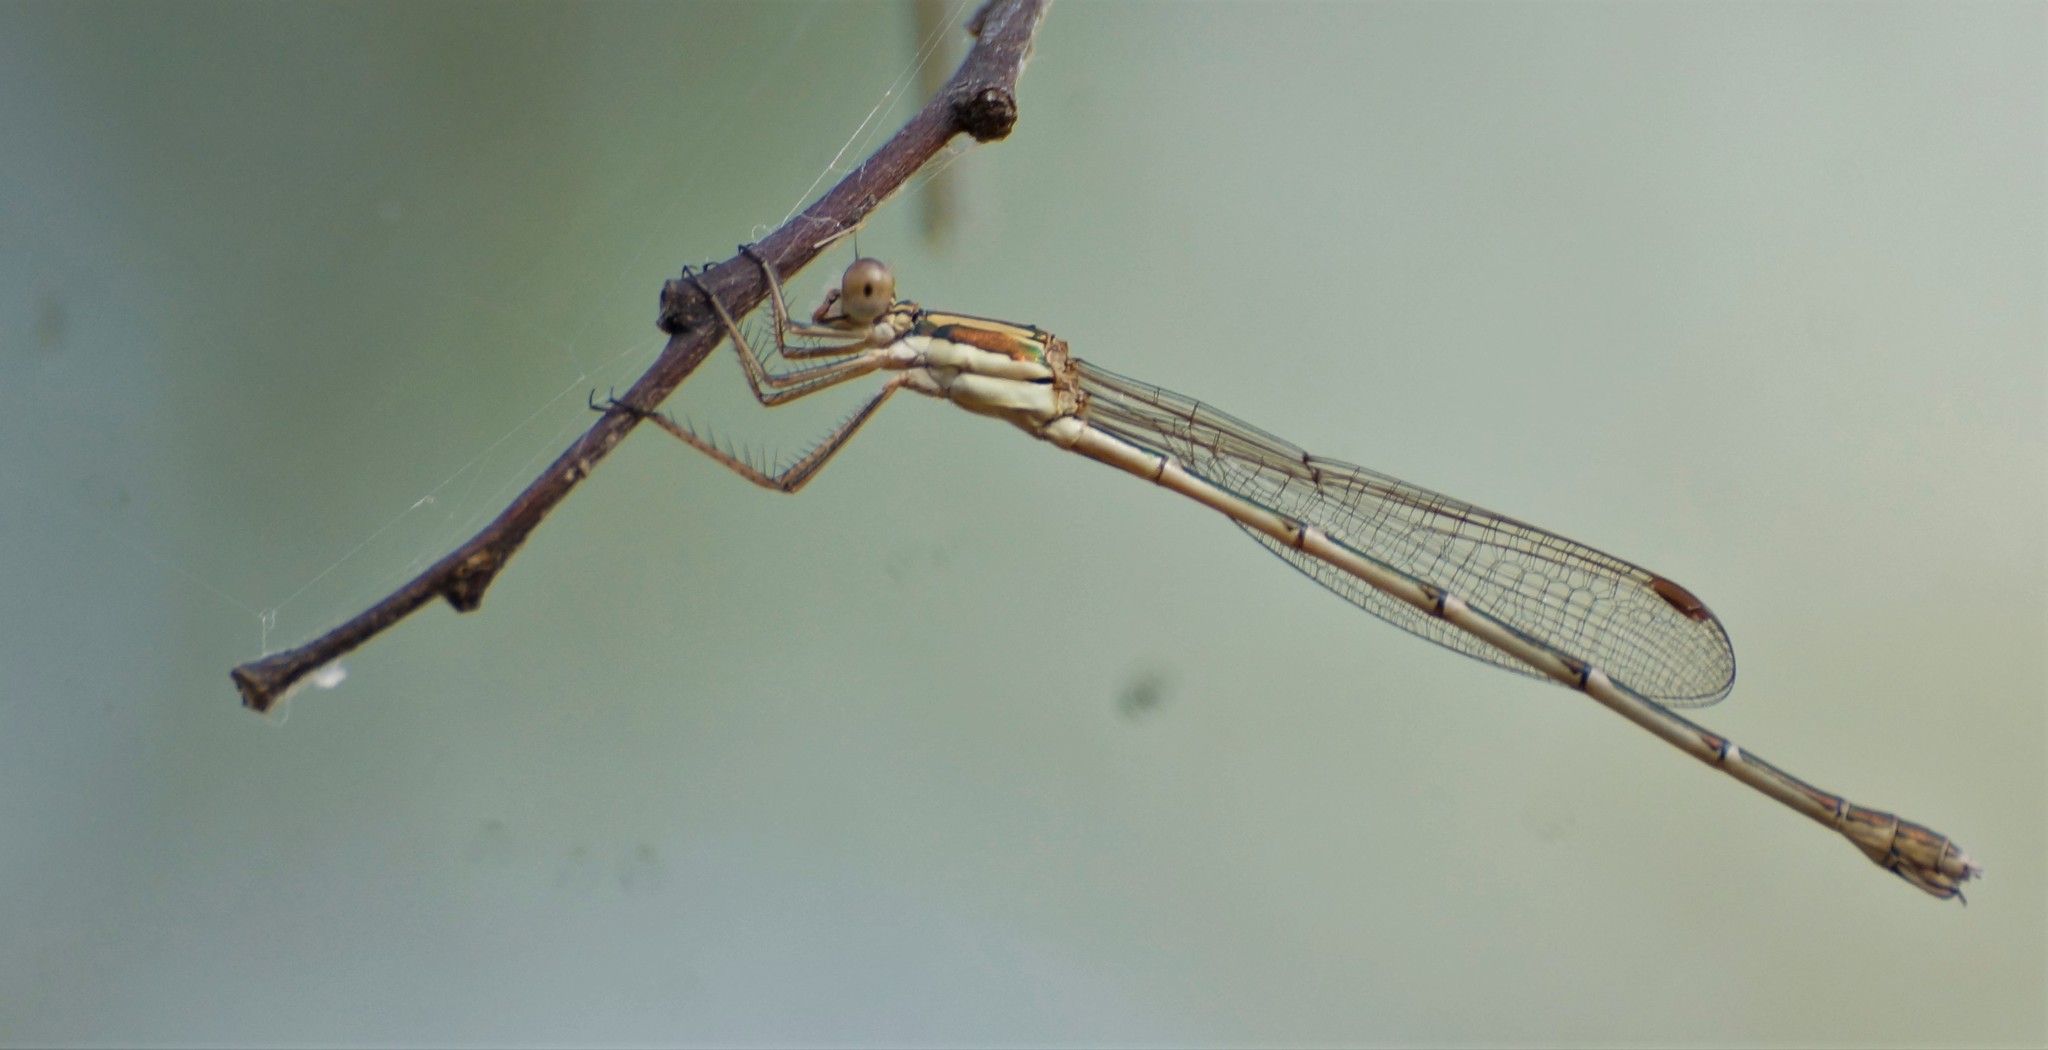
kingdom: Animalia
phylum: Arthropoda
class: Insecta
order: Odonata
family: Lestidae
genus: Austrolestes
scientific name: Austrolestes analis
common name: Slender ringtail
